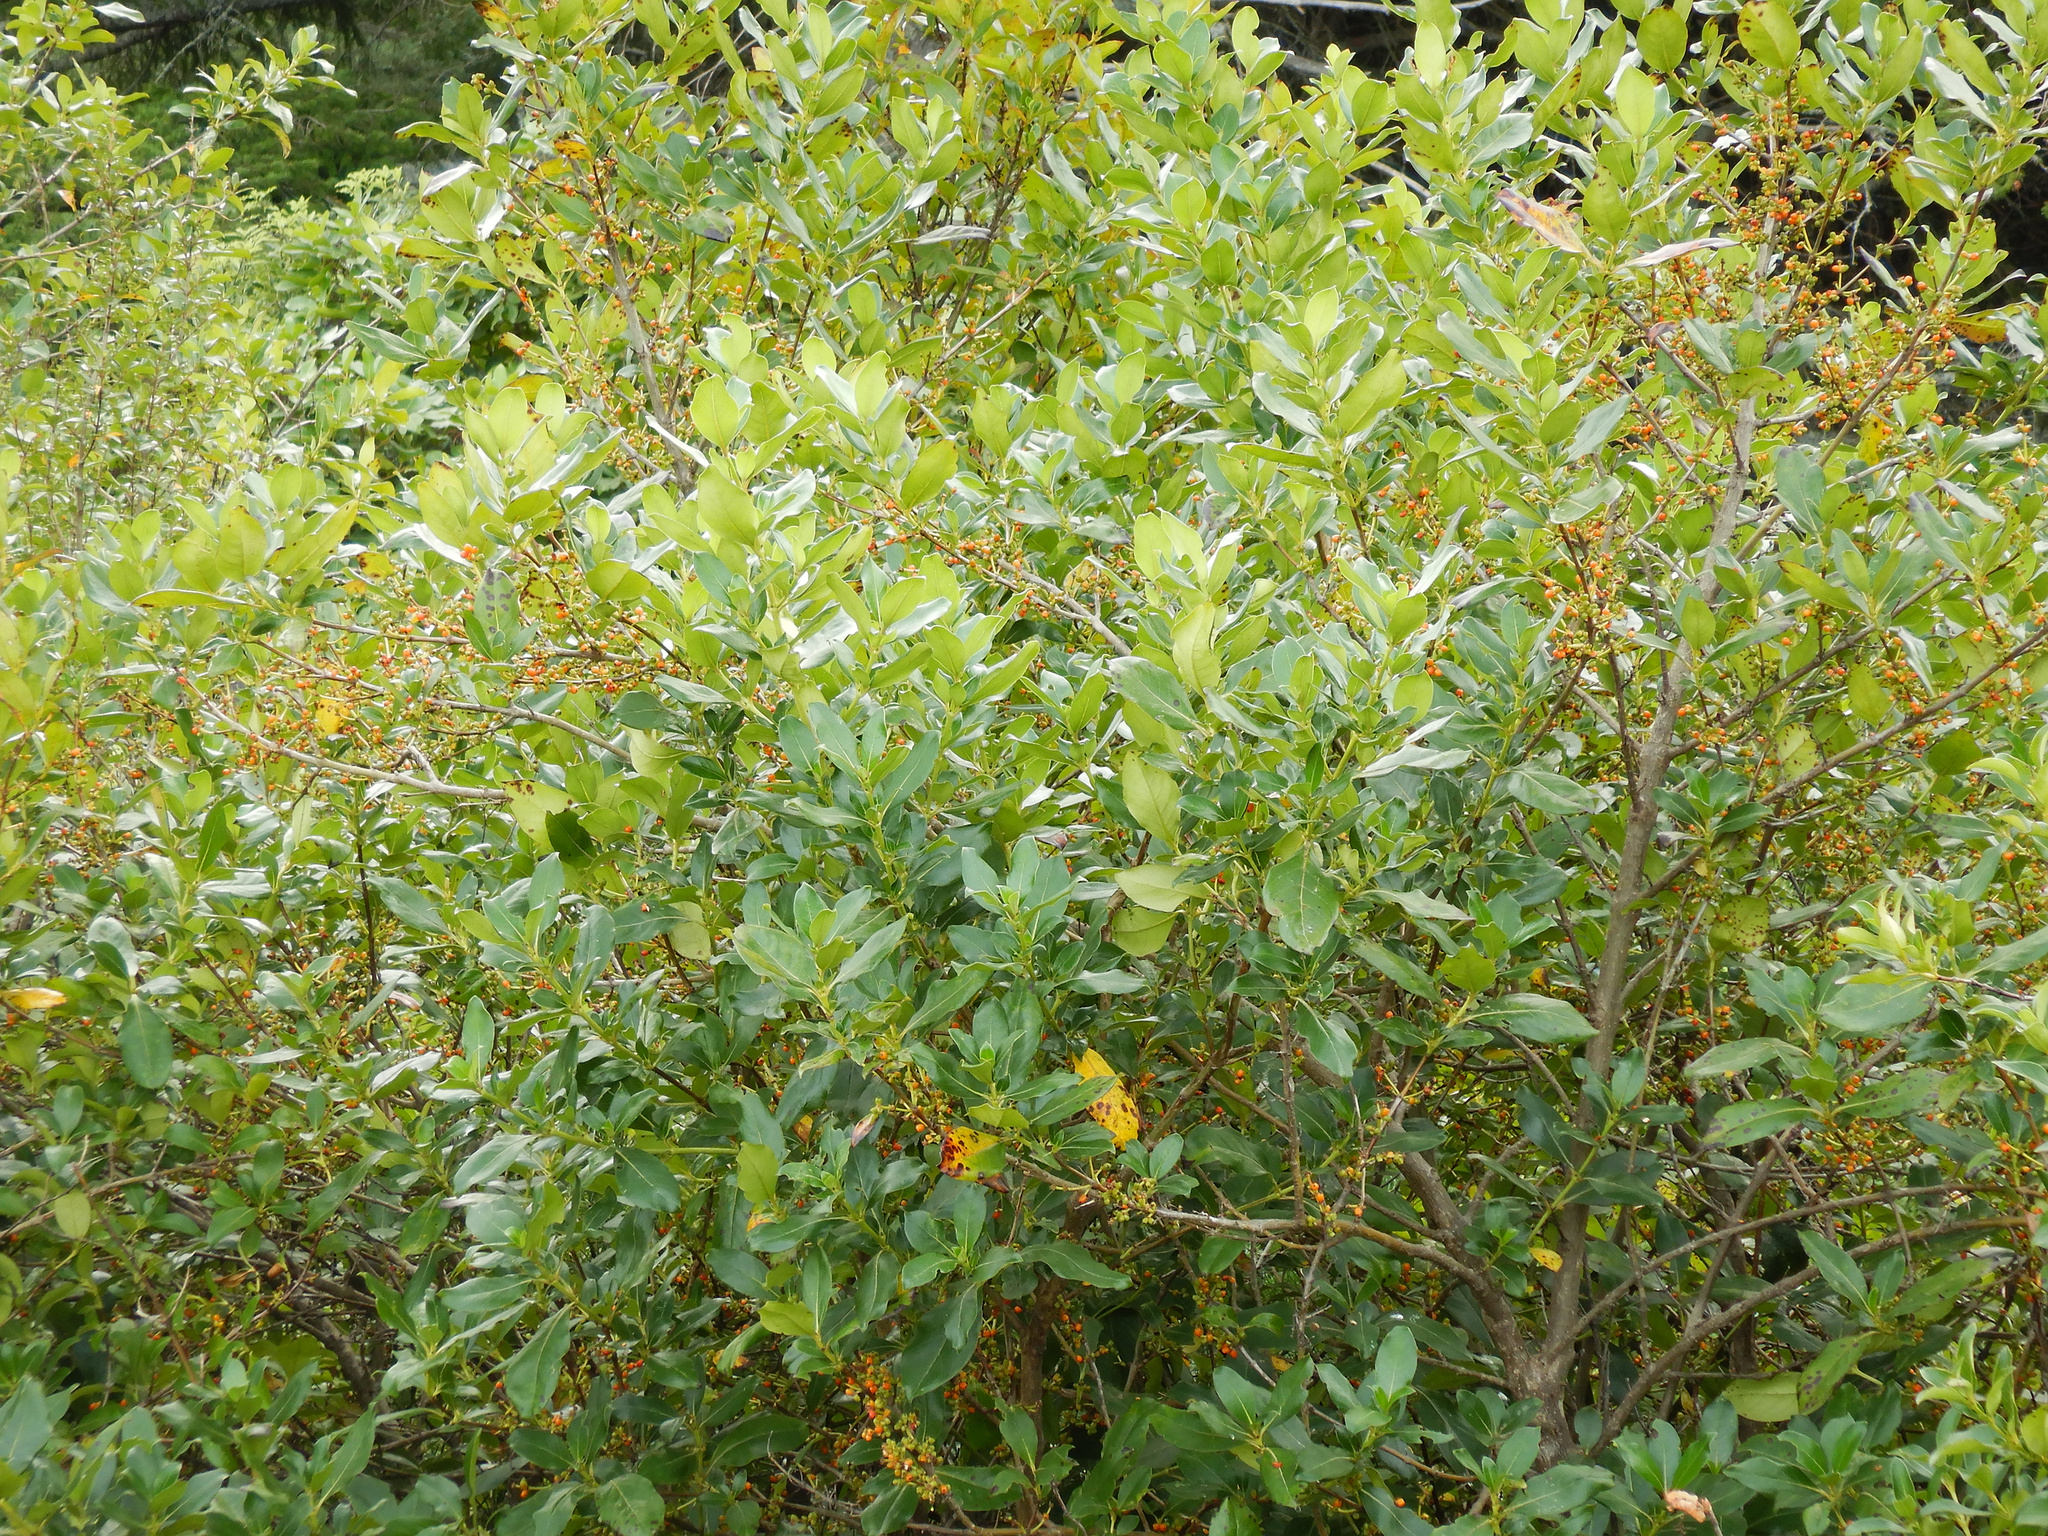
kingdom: Plantae
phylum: Tracheophyta
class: Magnoliopsida
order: Gentianales
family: Rubiaceae
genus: Coprosma
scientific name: Coprosma robusta
